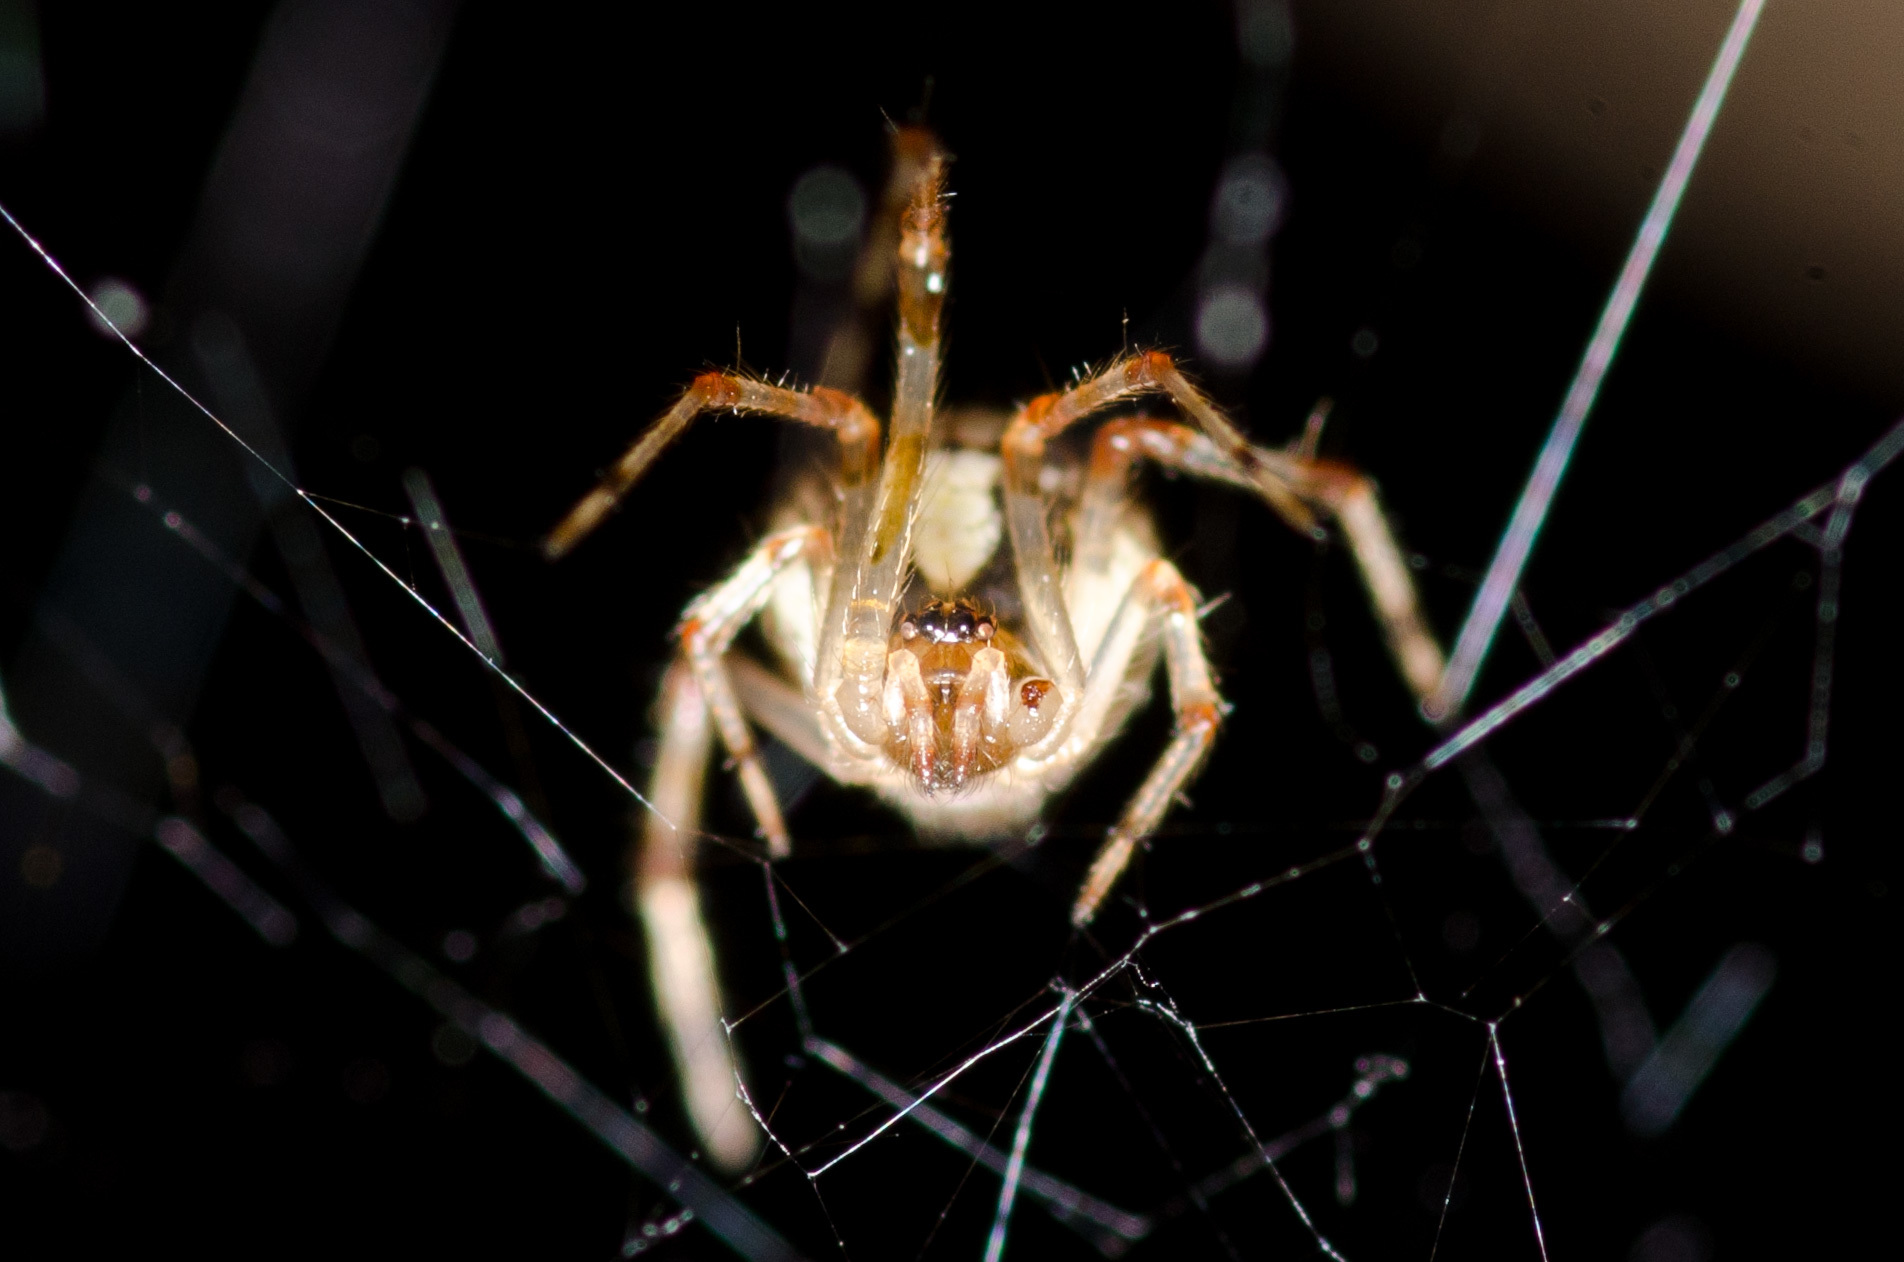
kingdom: Animalia
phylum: Arthropoda
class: Arachnida
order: Araneae
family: Theridiidae
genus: Yunohamella
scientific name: Yunohamella lyrica
